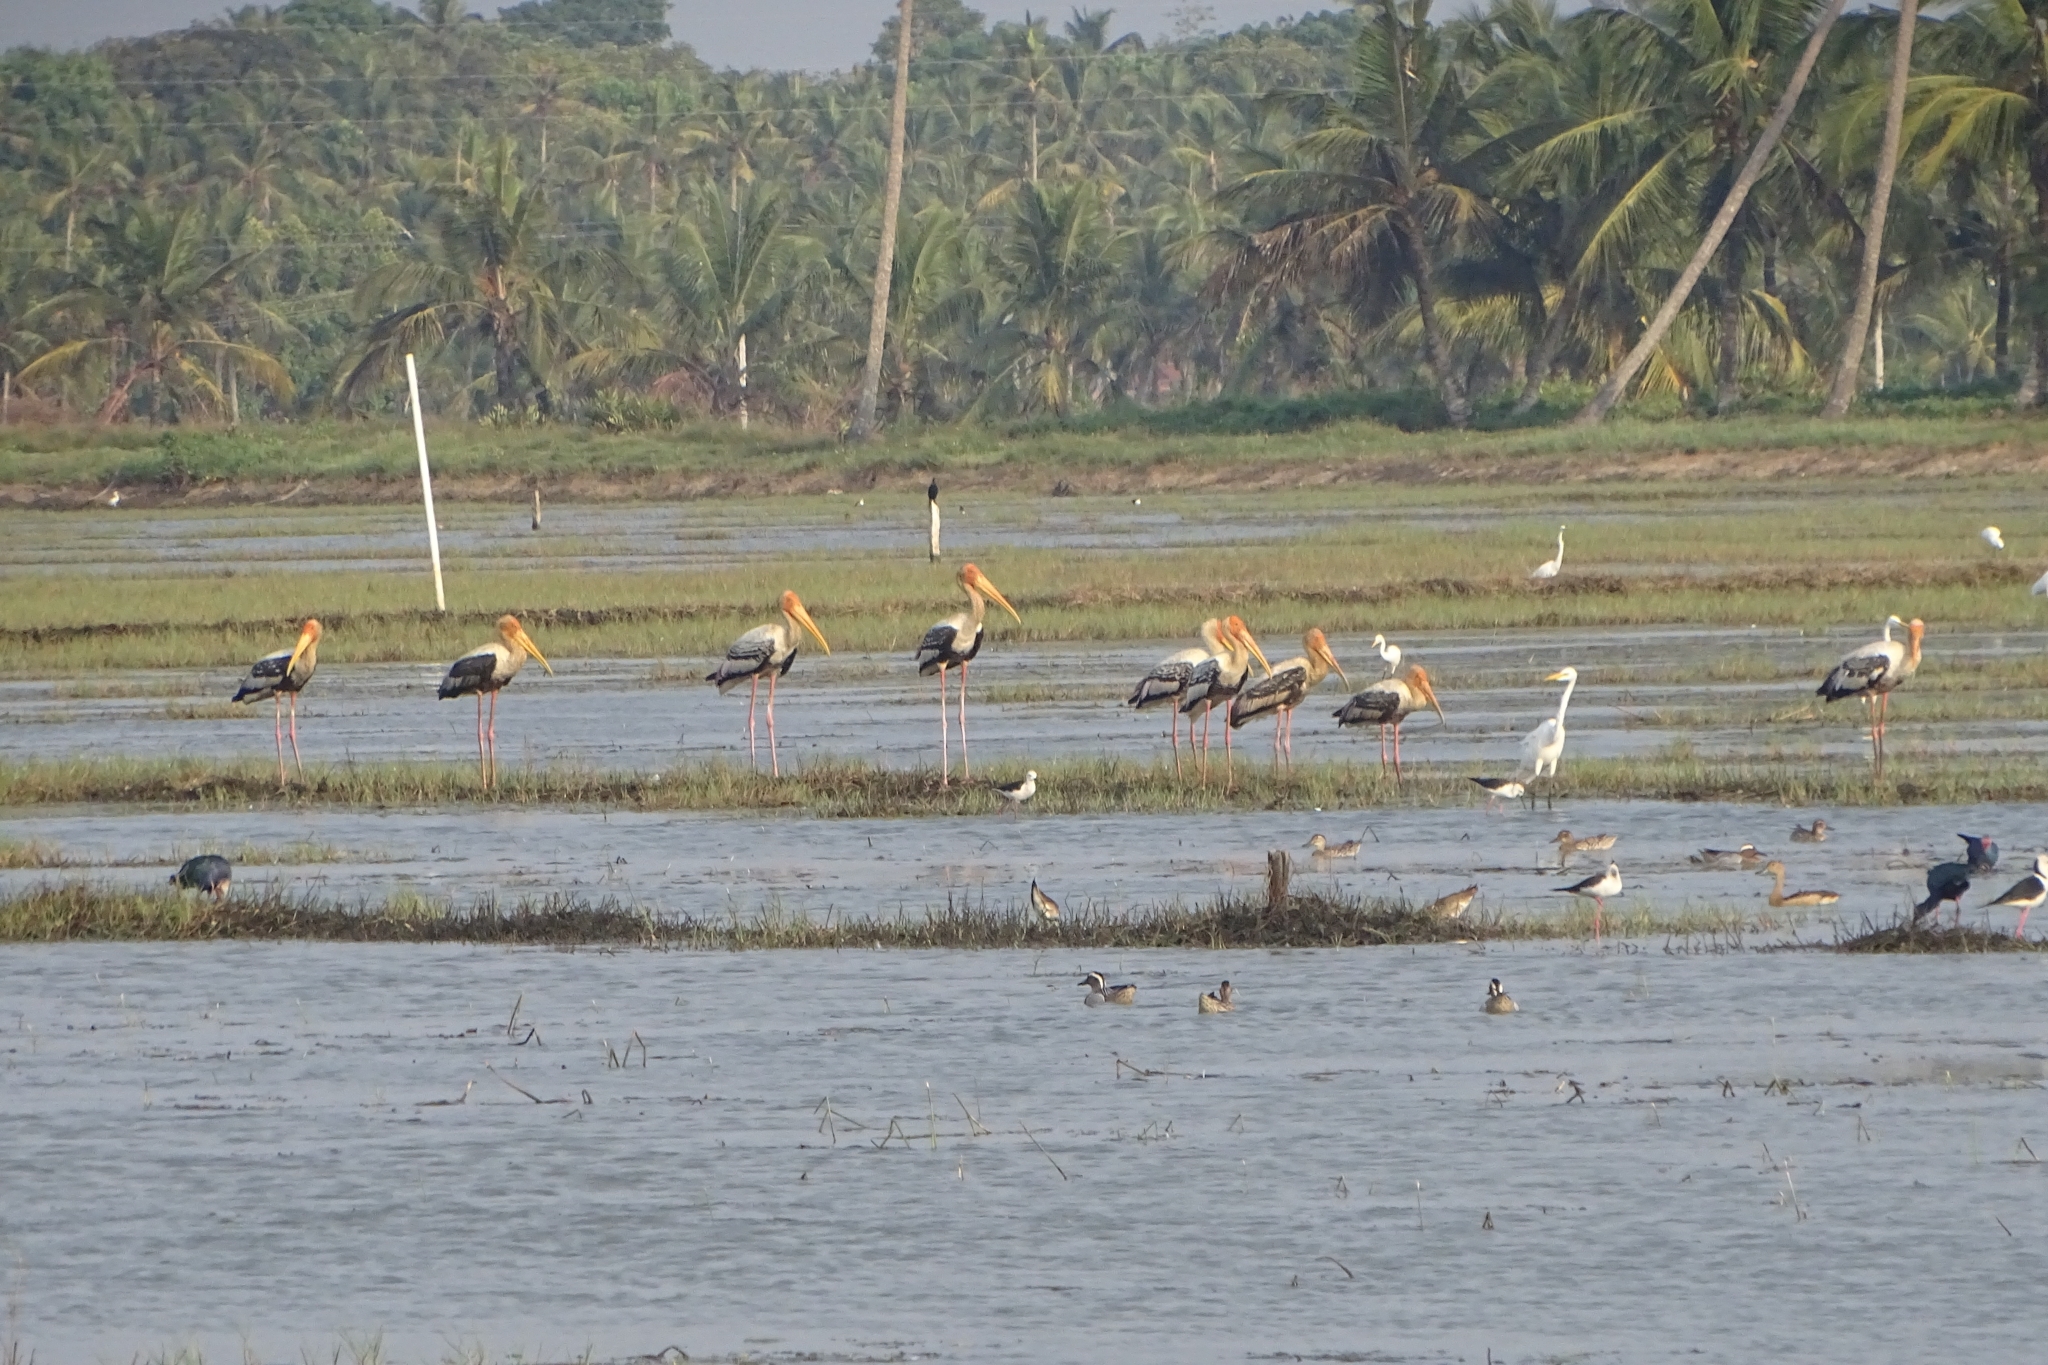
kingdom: Animalia
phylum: Chordata
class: Aves
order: Ciconiiformes
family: Ciconiidae
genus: Mycteria
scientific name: Mycteria leucocephala
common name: Painted stork
